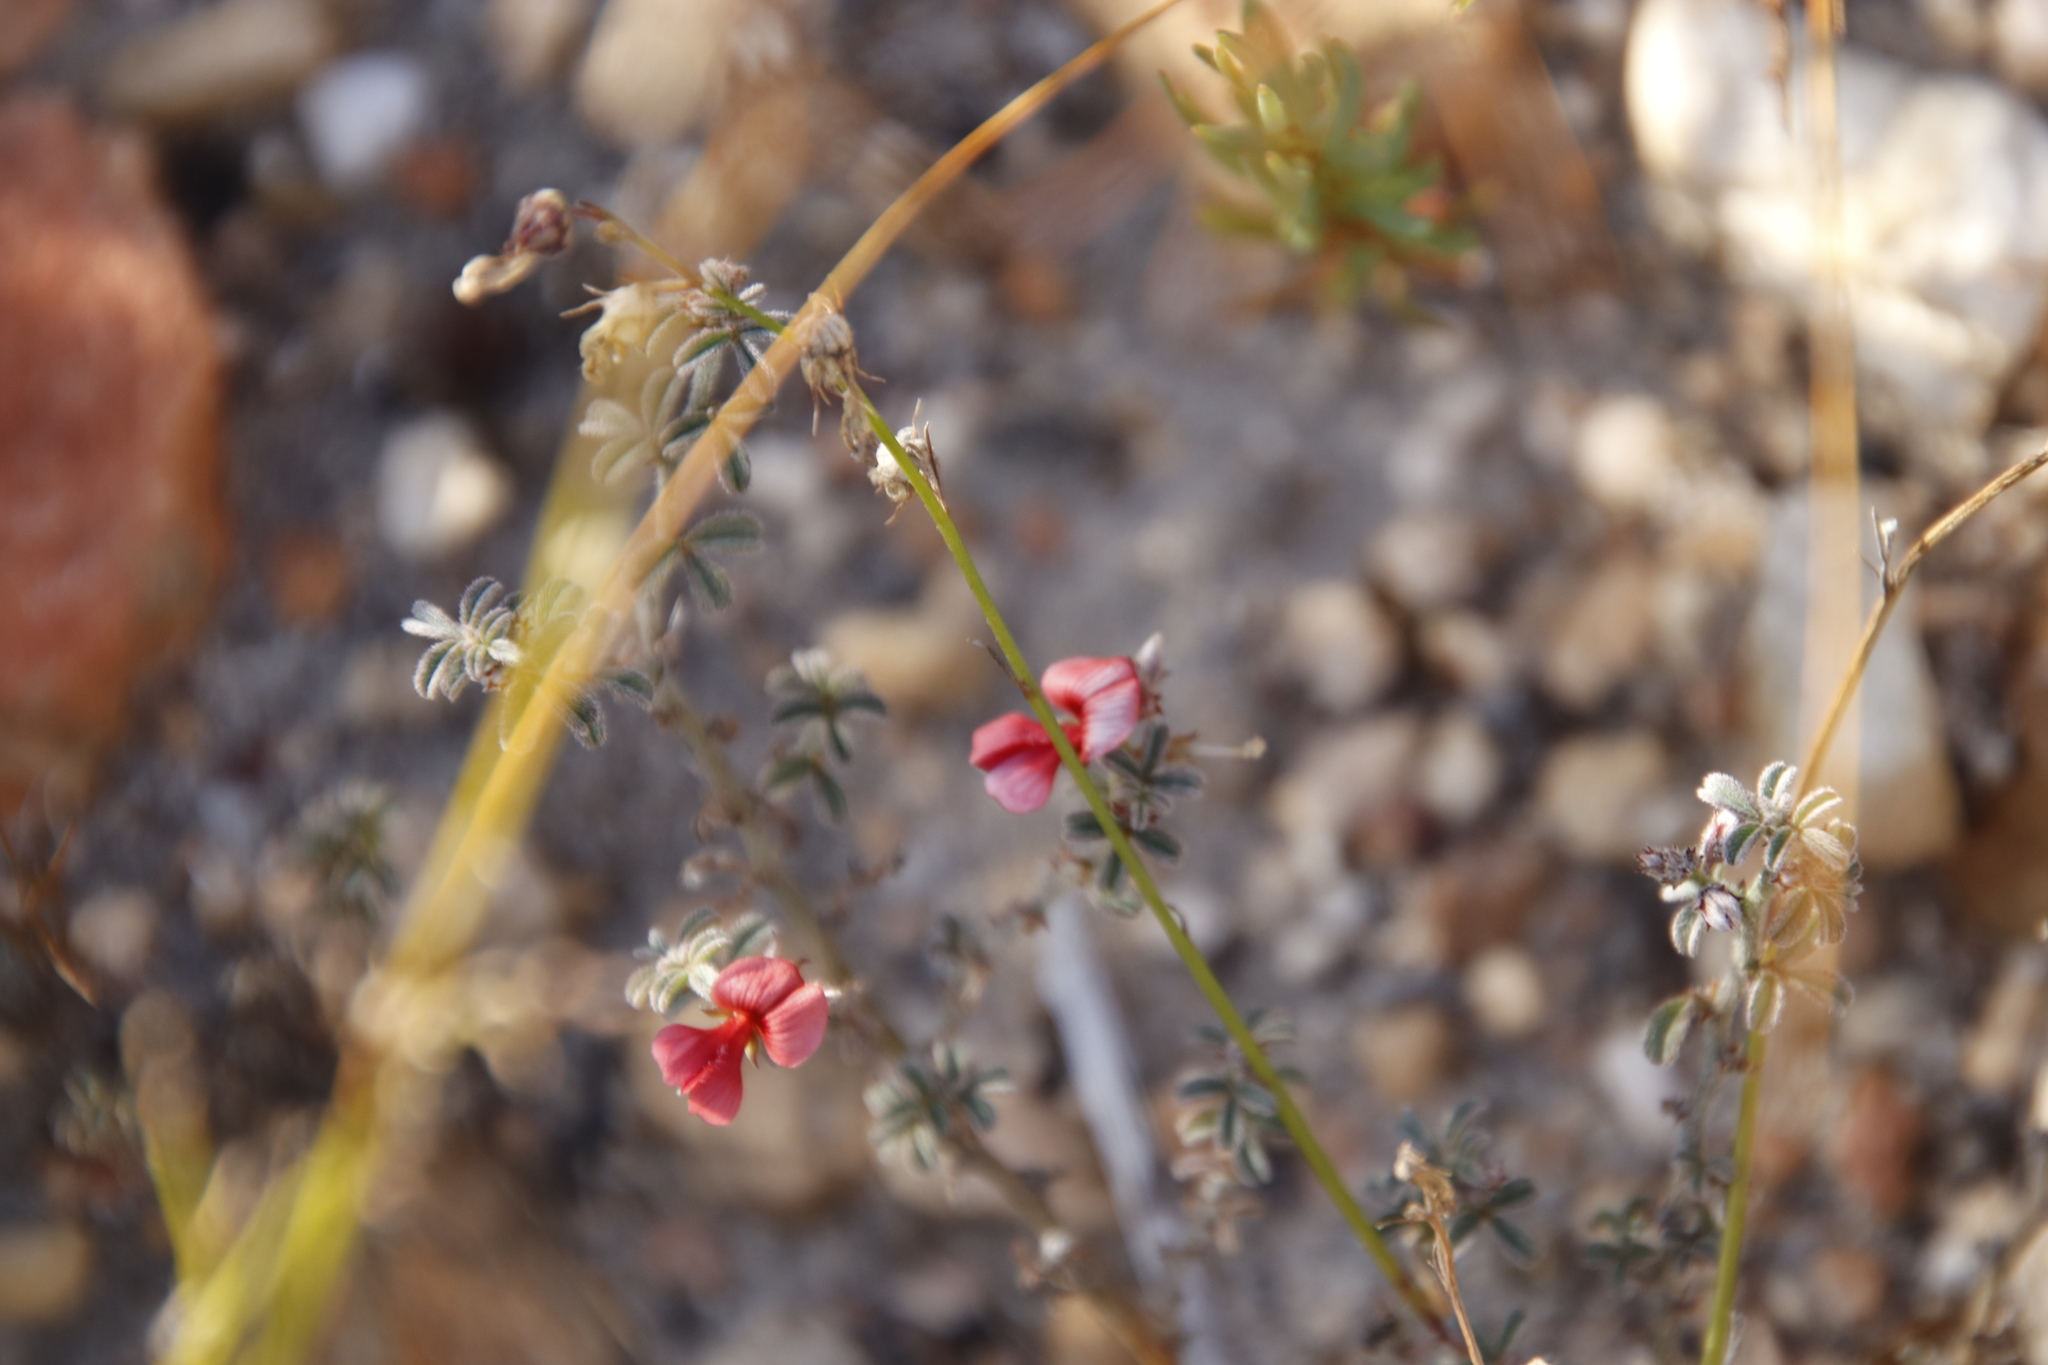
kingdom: Plantae
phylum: Tracheophyta
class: Magnoliopsida
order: Fabales
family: Fabaceae
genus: Indigofera
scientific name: Indigofera priorii
